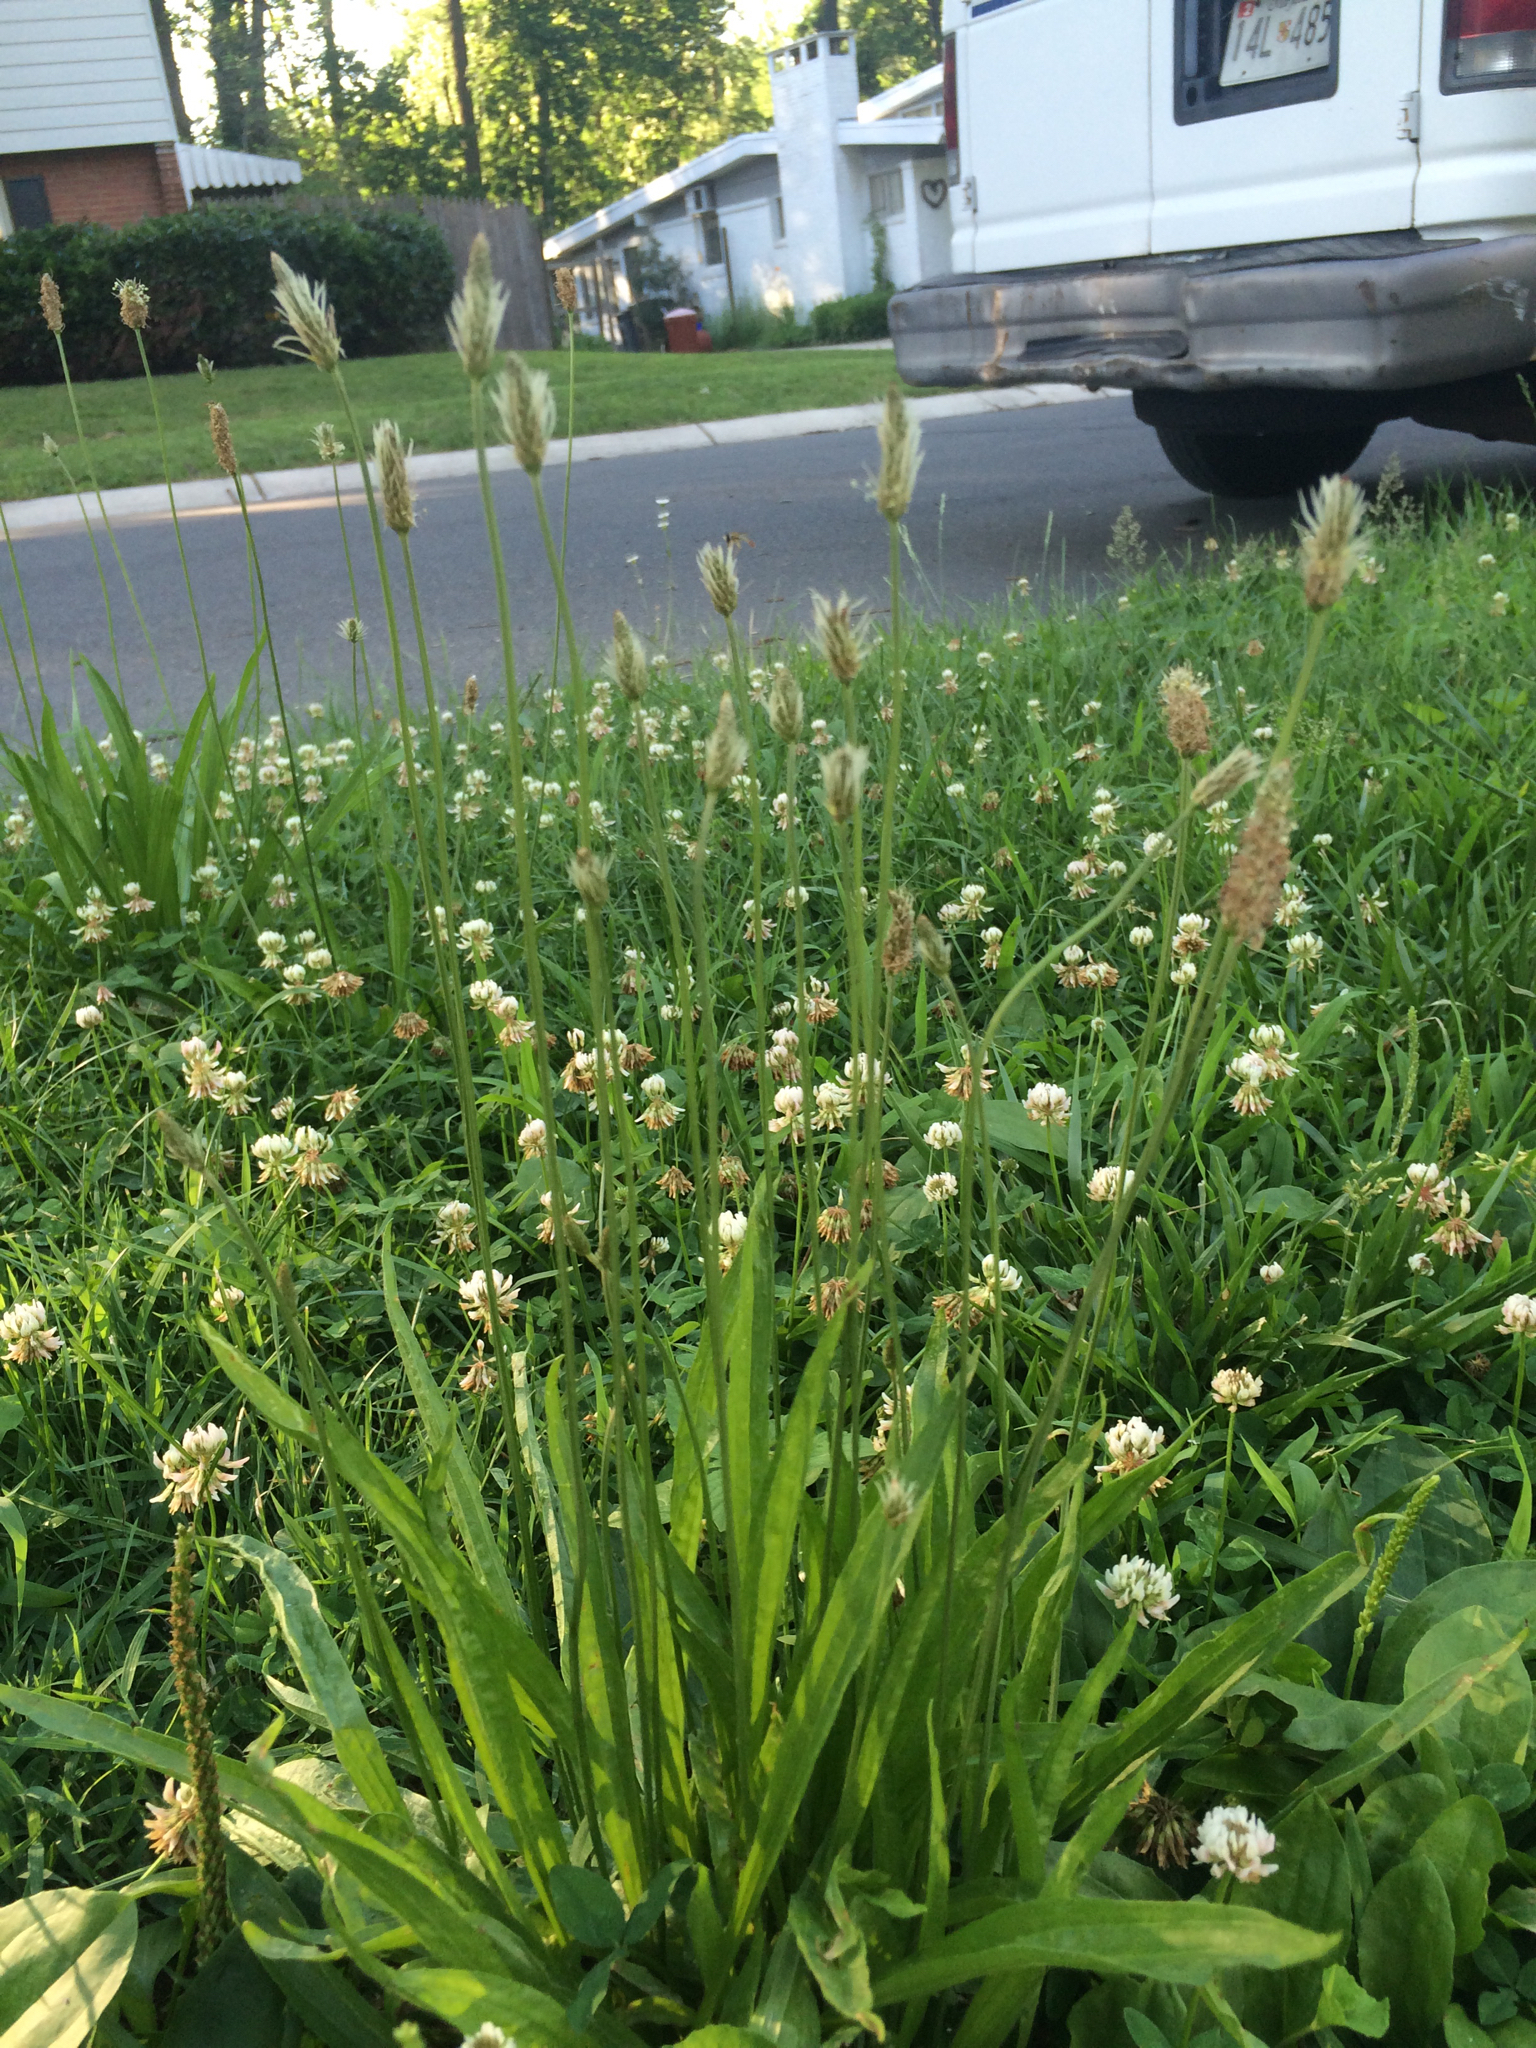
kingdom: Plantae
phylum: Tracheophyta
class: Magnoliopsida
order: Lamiales
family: Plantaginaceae
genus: Plantago
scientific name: Plantago lanceolata
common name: Ribwort plantain
